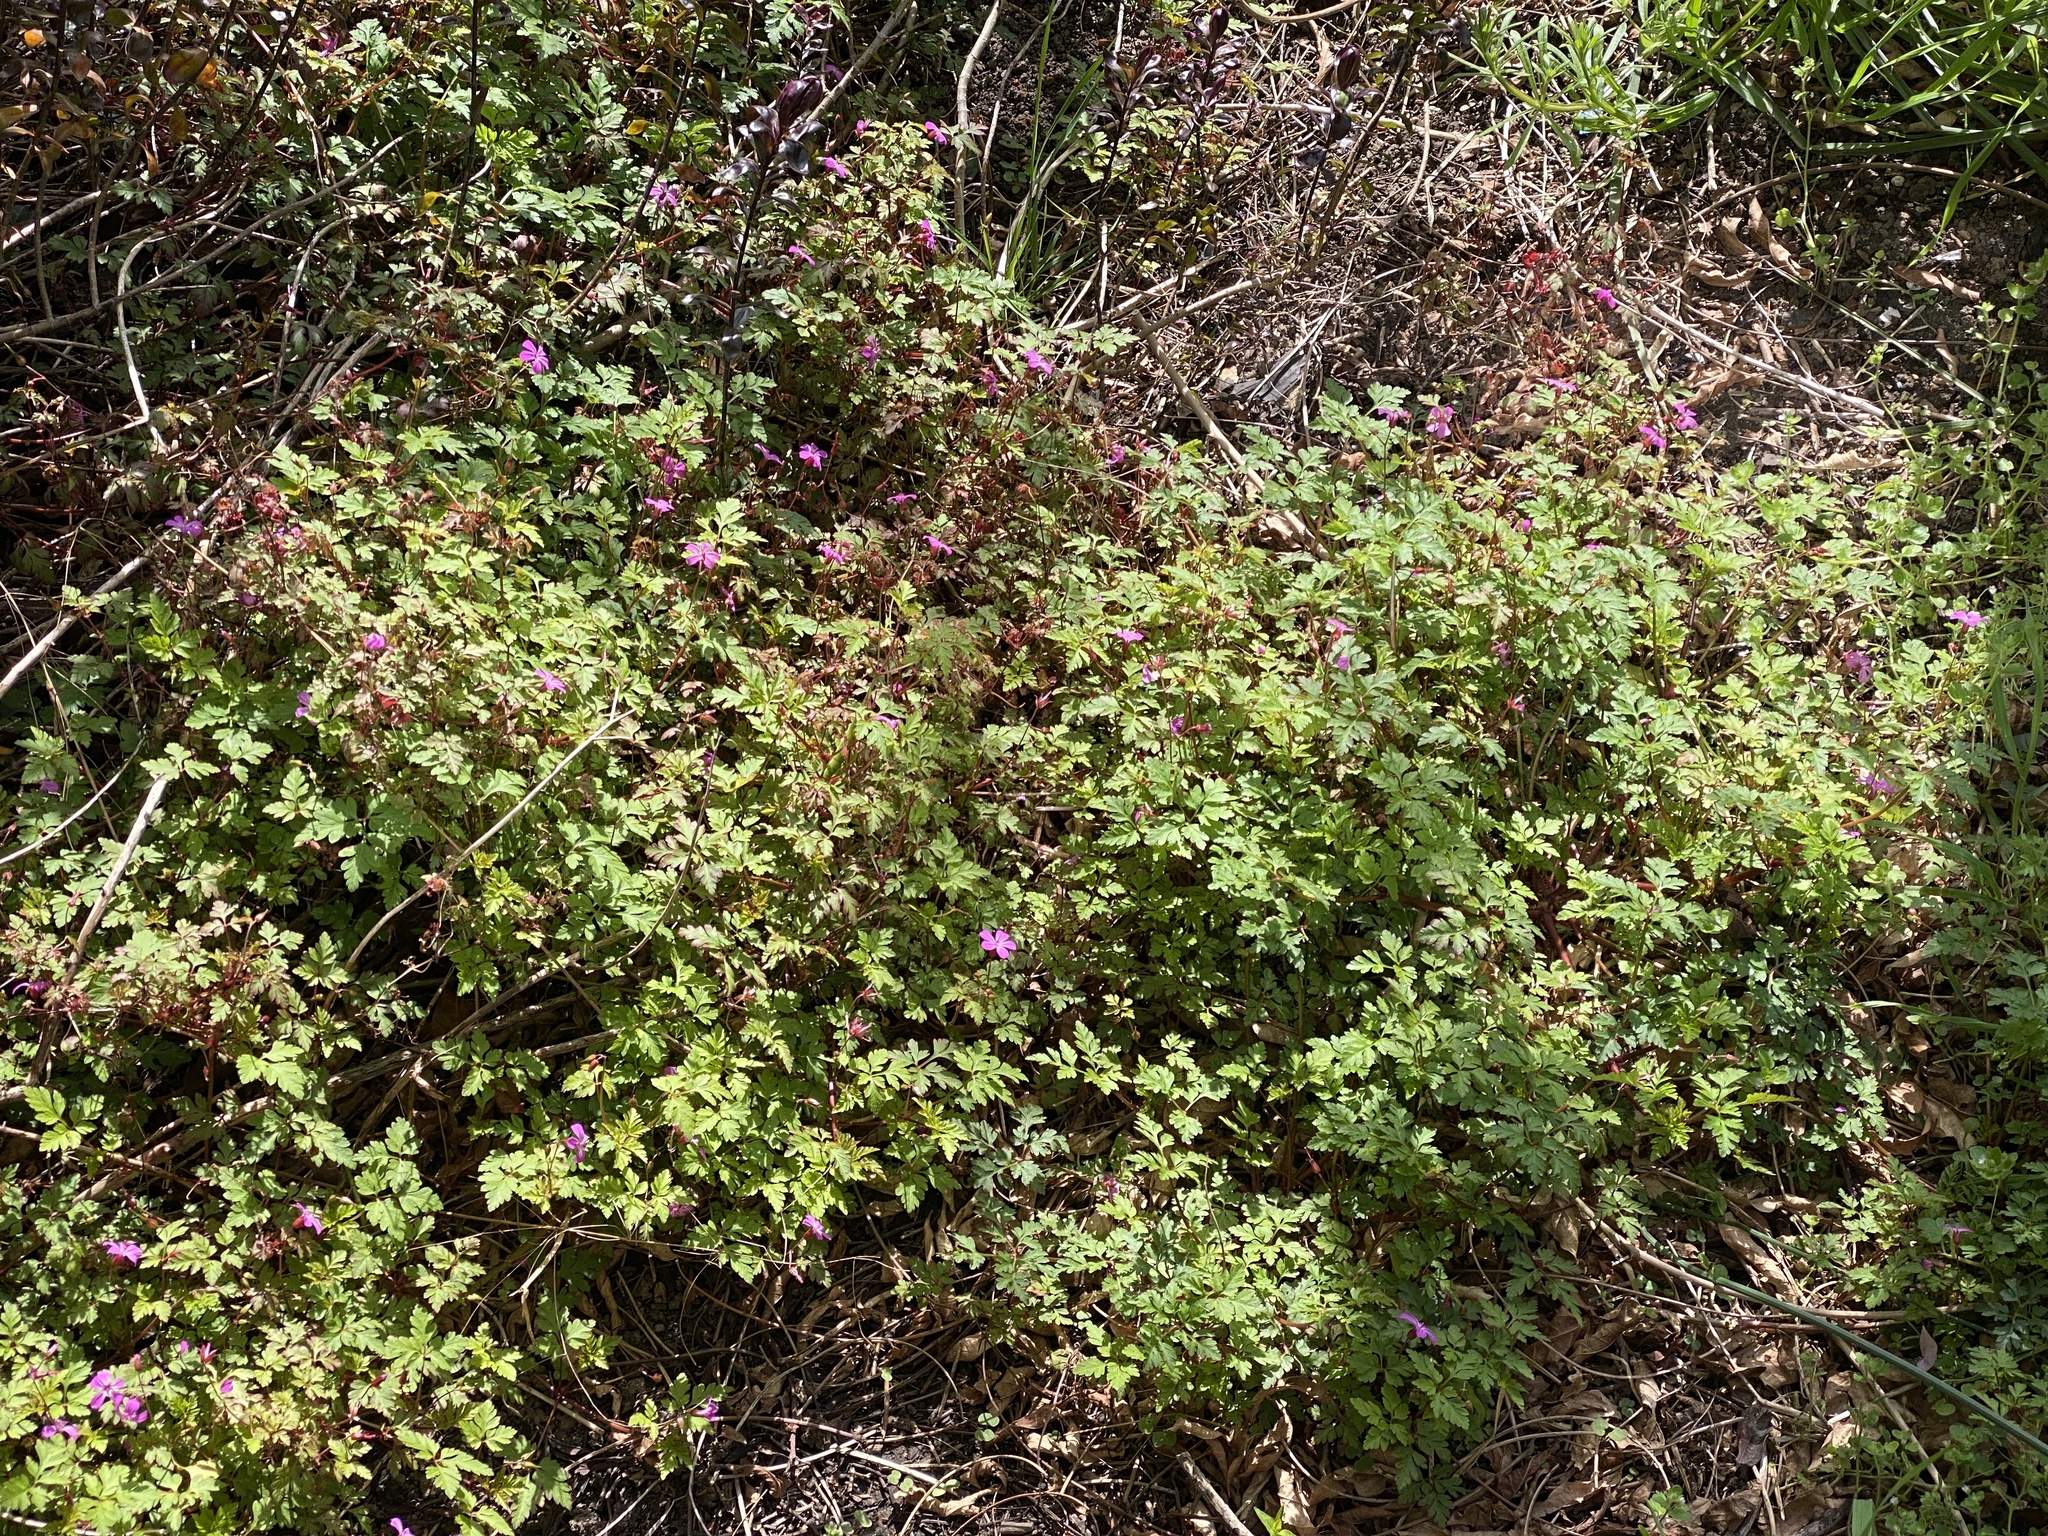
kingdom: Plantae
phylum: Tracheophyta
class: Magnoliopsida
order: Geraniales
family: Geraniaceae
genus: Geranium
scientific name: Geranium robertianum
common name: Herb-robert
